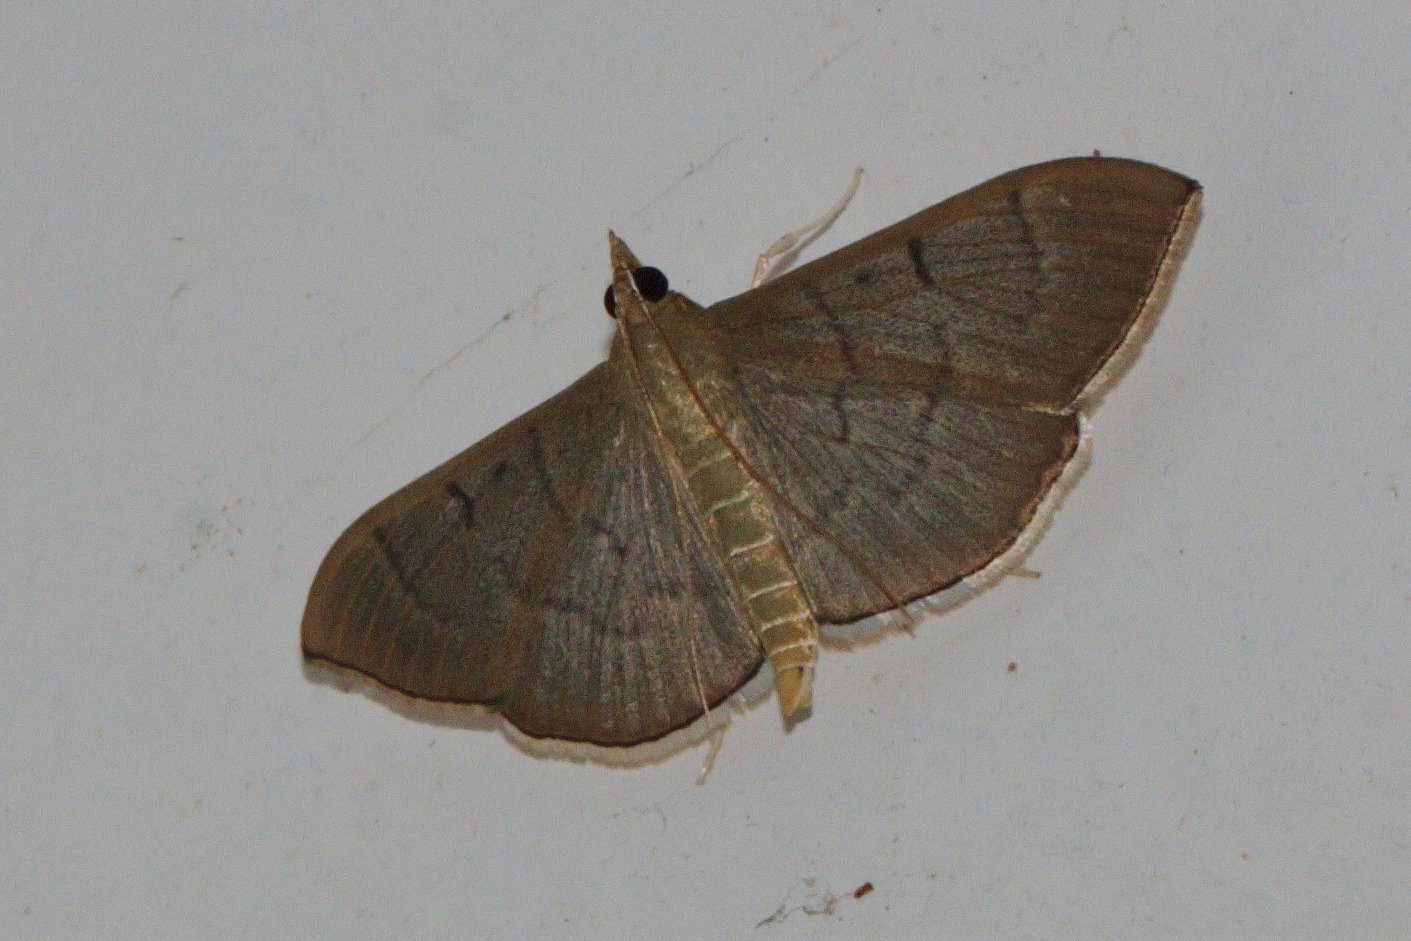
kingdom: Animalia
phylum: Arthropoda
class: Insecta
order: Lepidoptera
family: Crambidae
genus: Lamprophaia
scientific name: Lamprophaia ablactalis
